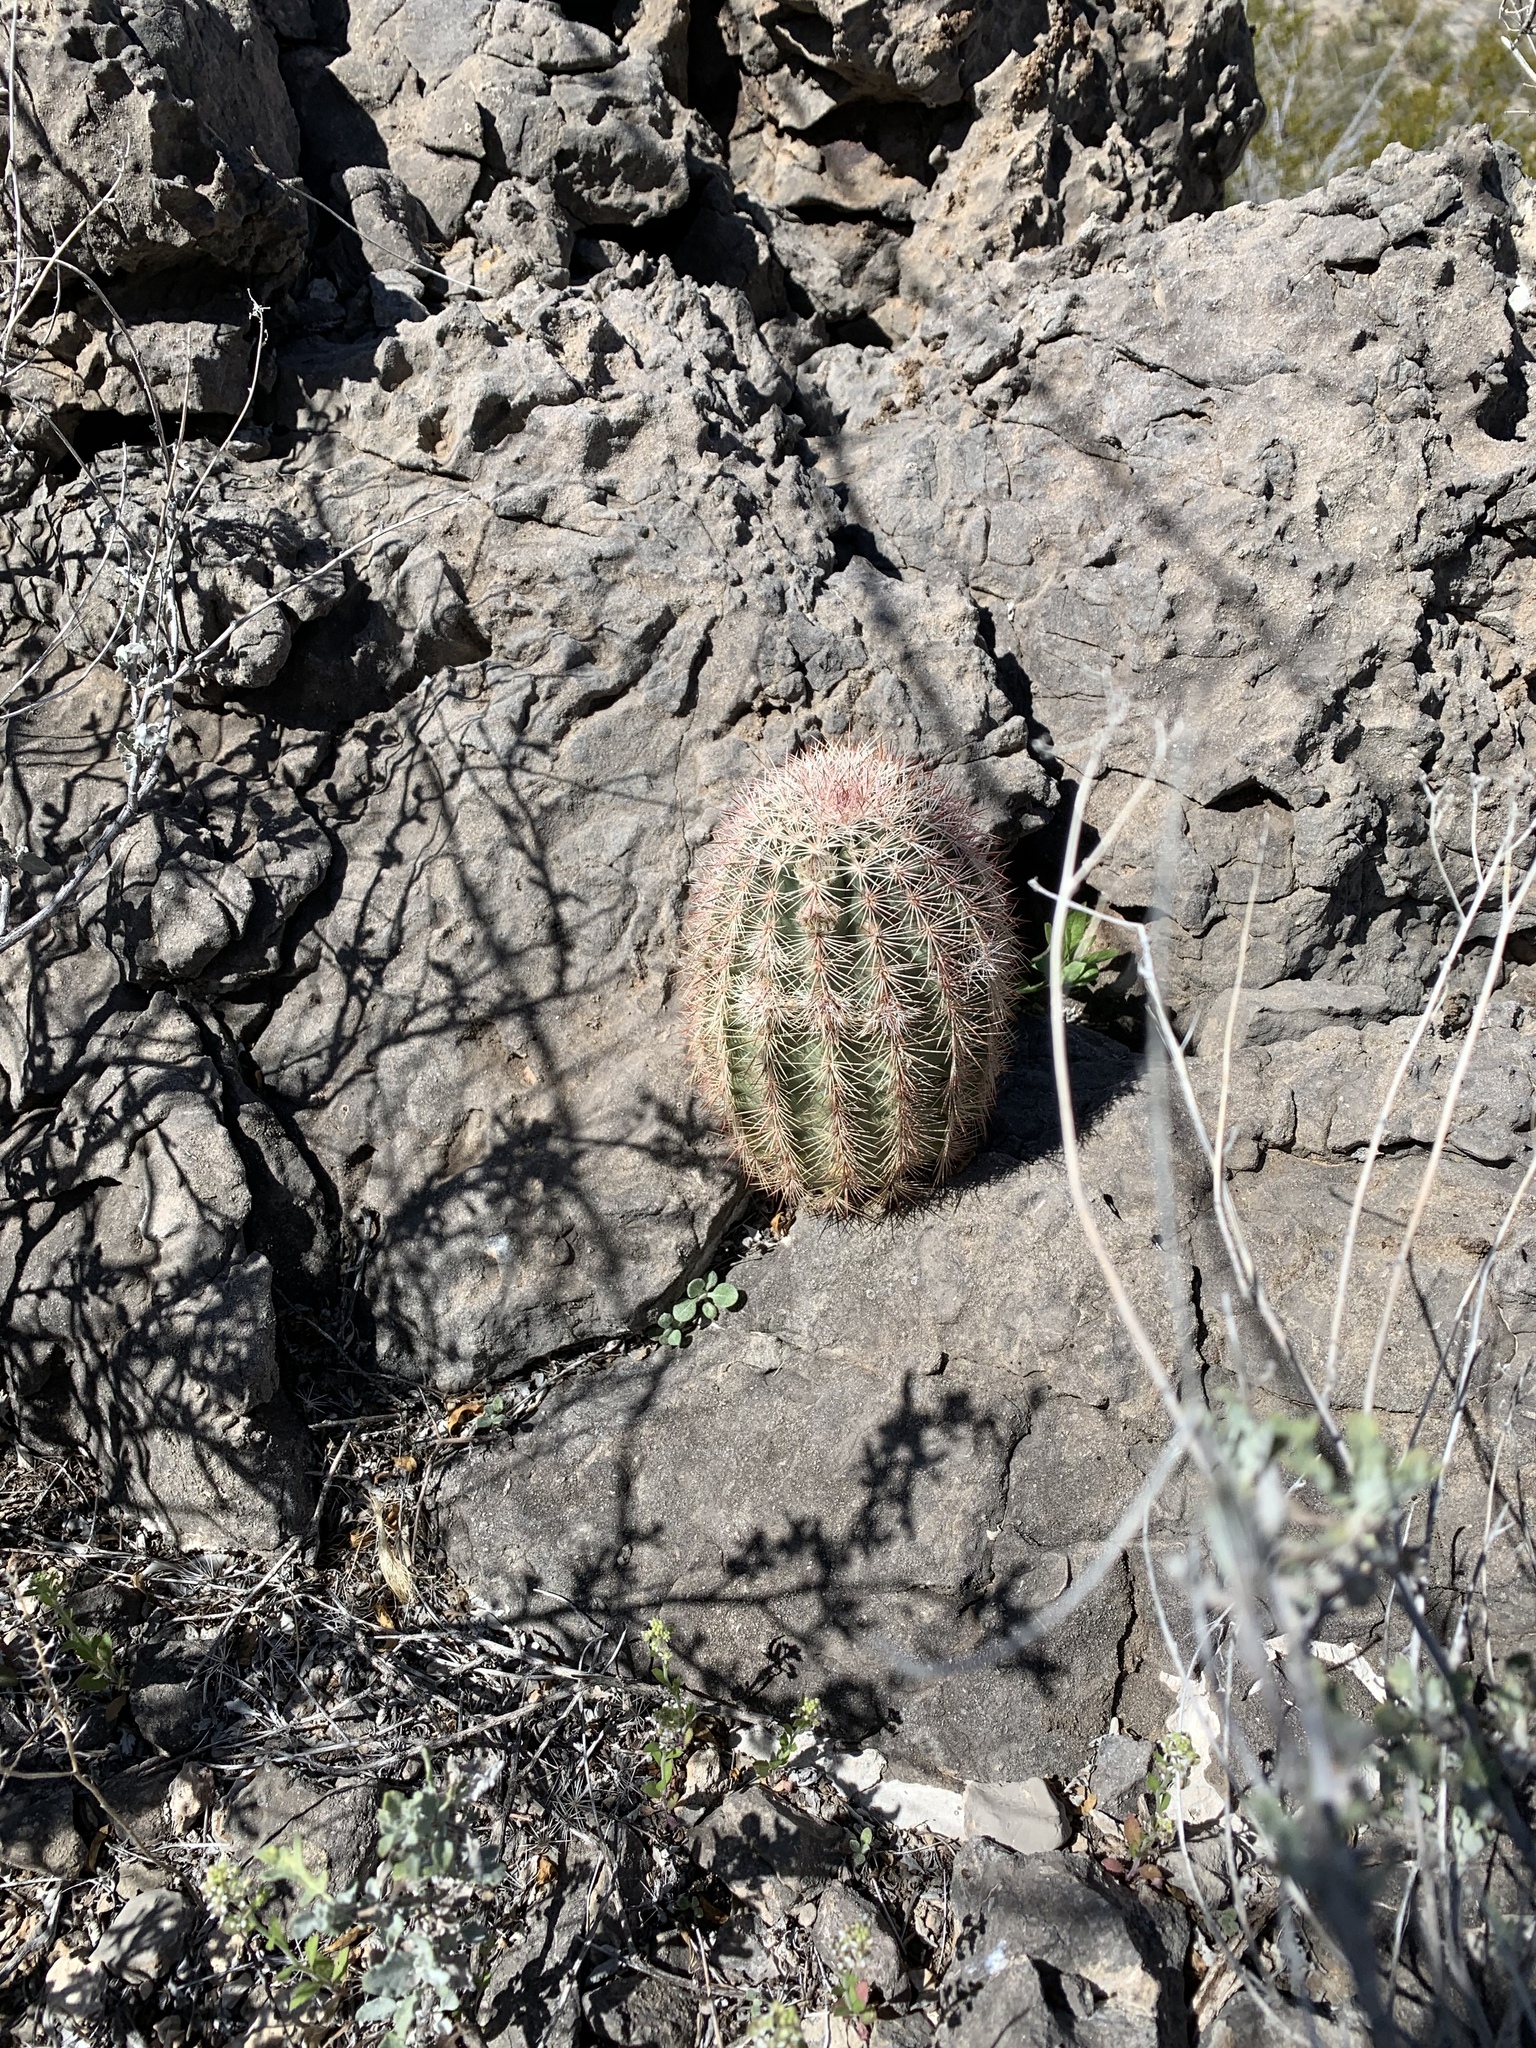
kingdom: Plantae
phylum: Tracheophyta
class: Magnoliopsida
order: Caryophyllales
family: Cactaceae
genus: Echinocereus
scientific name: Echinocereus dasyacanthus
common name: Spiny hedgehog cactus
